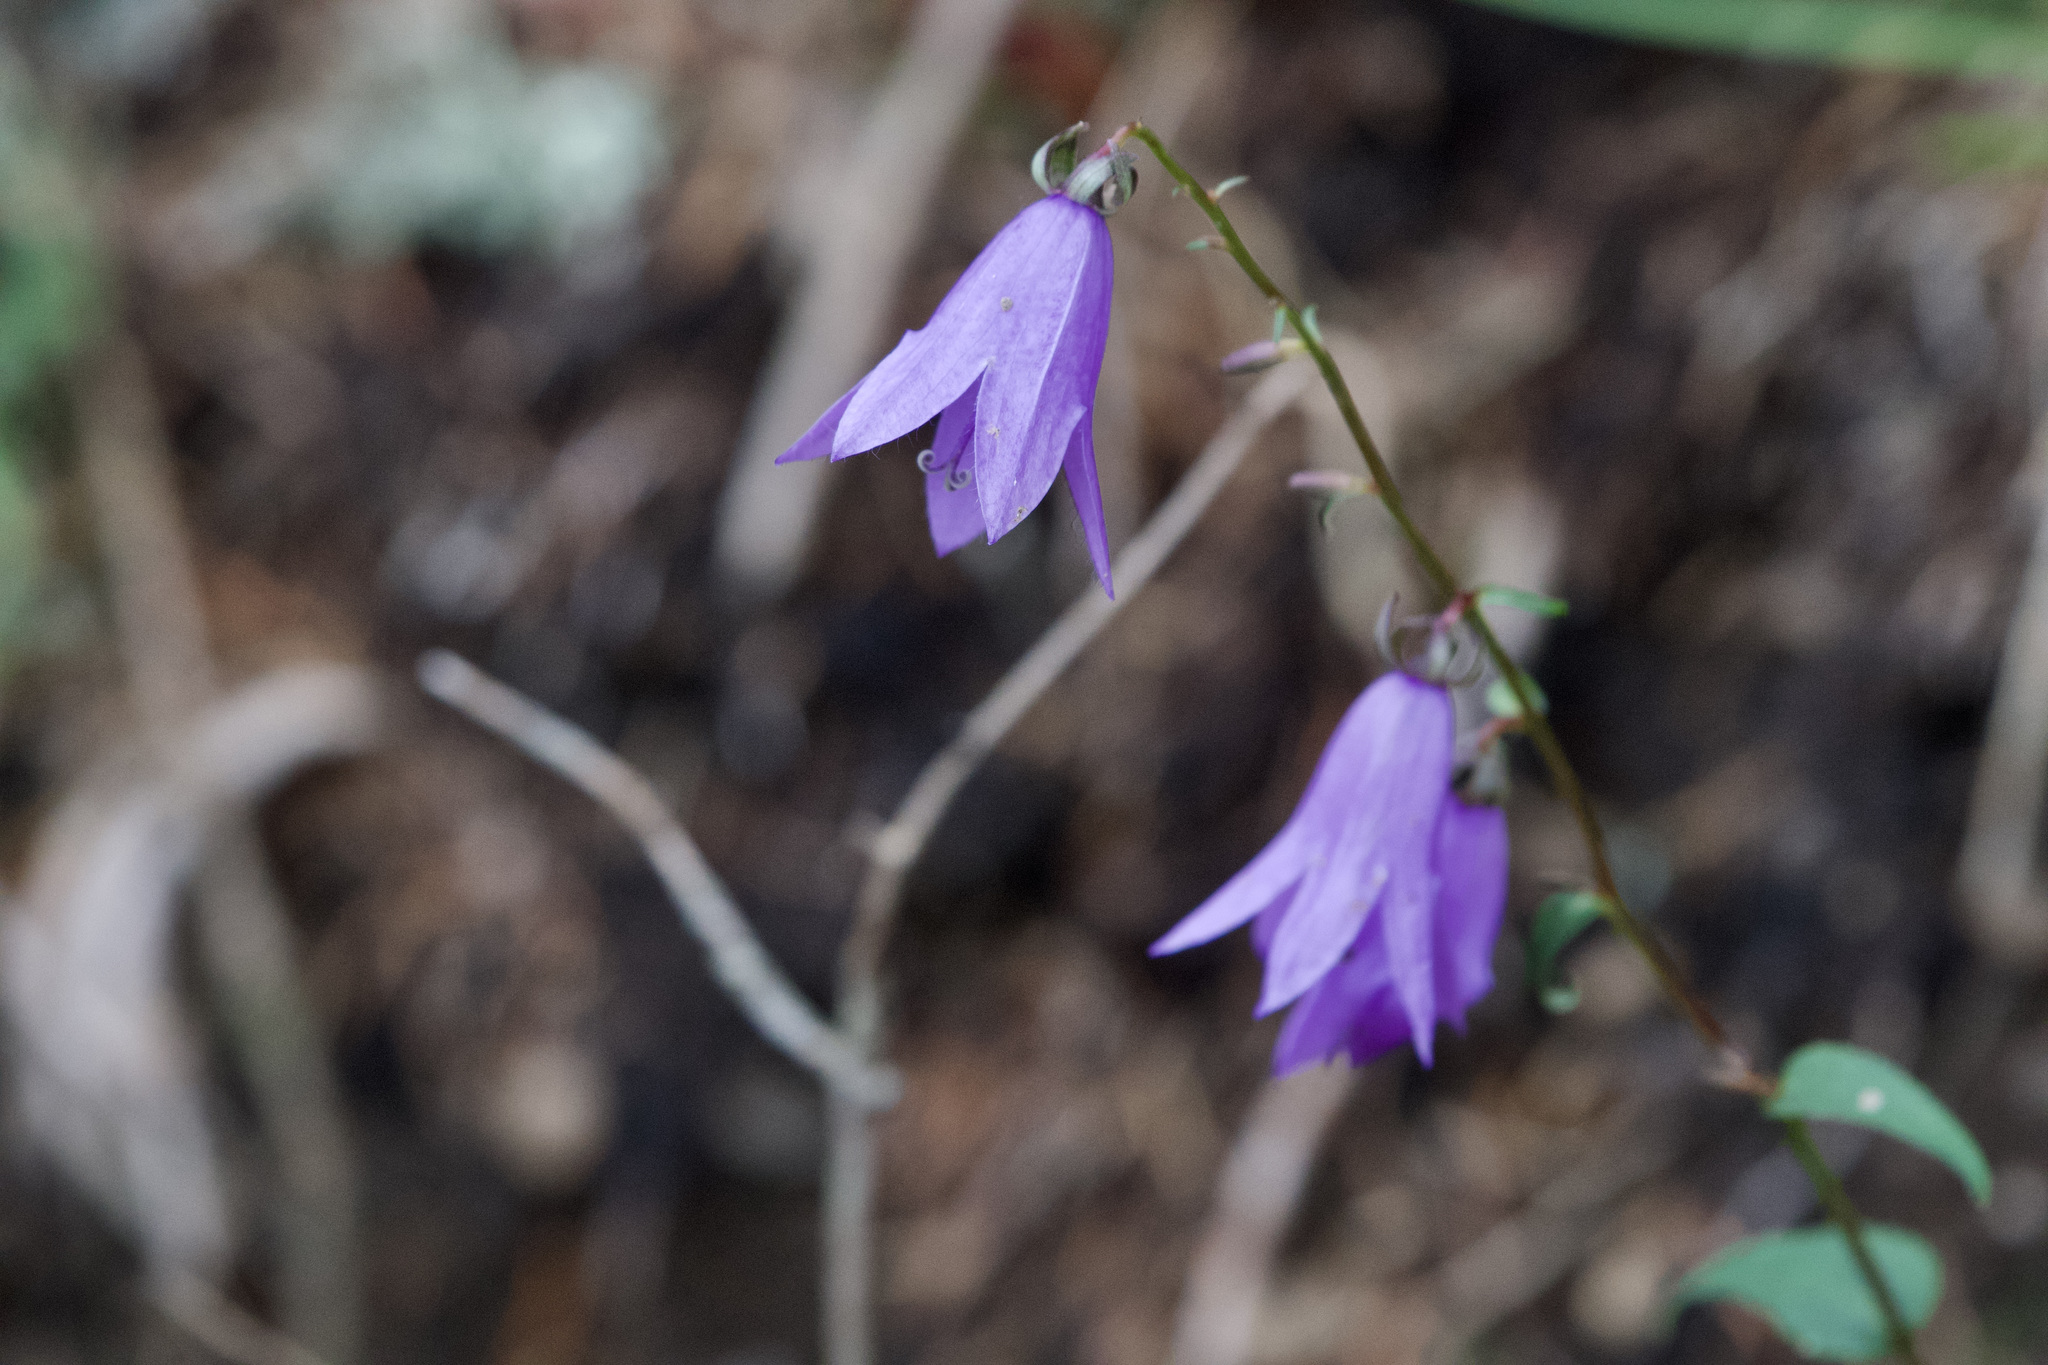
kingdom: Plantae
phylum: Tracheophyta
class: Magnoliopsida
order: Asterales
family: Campanulaceae
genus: Campanula
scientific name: Campanula rapunculoides
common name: Creeping bellflower
